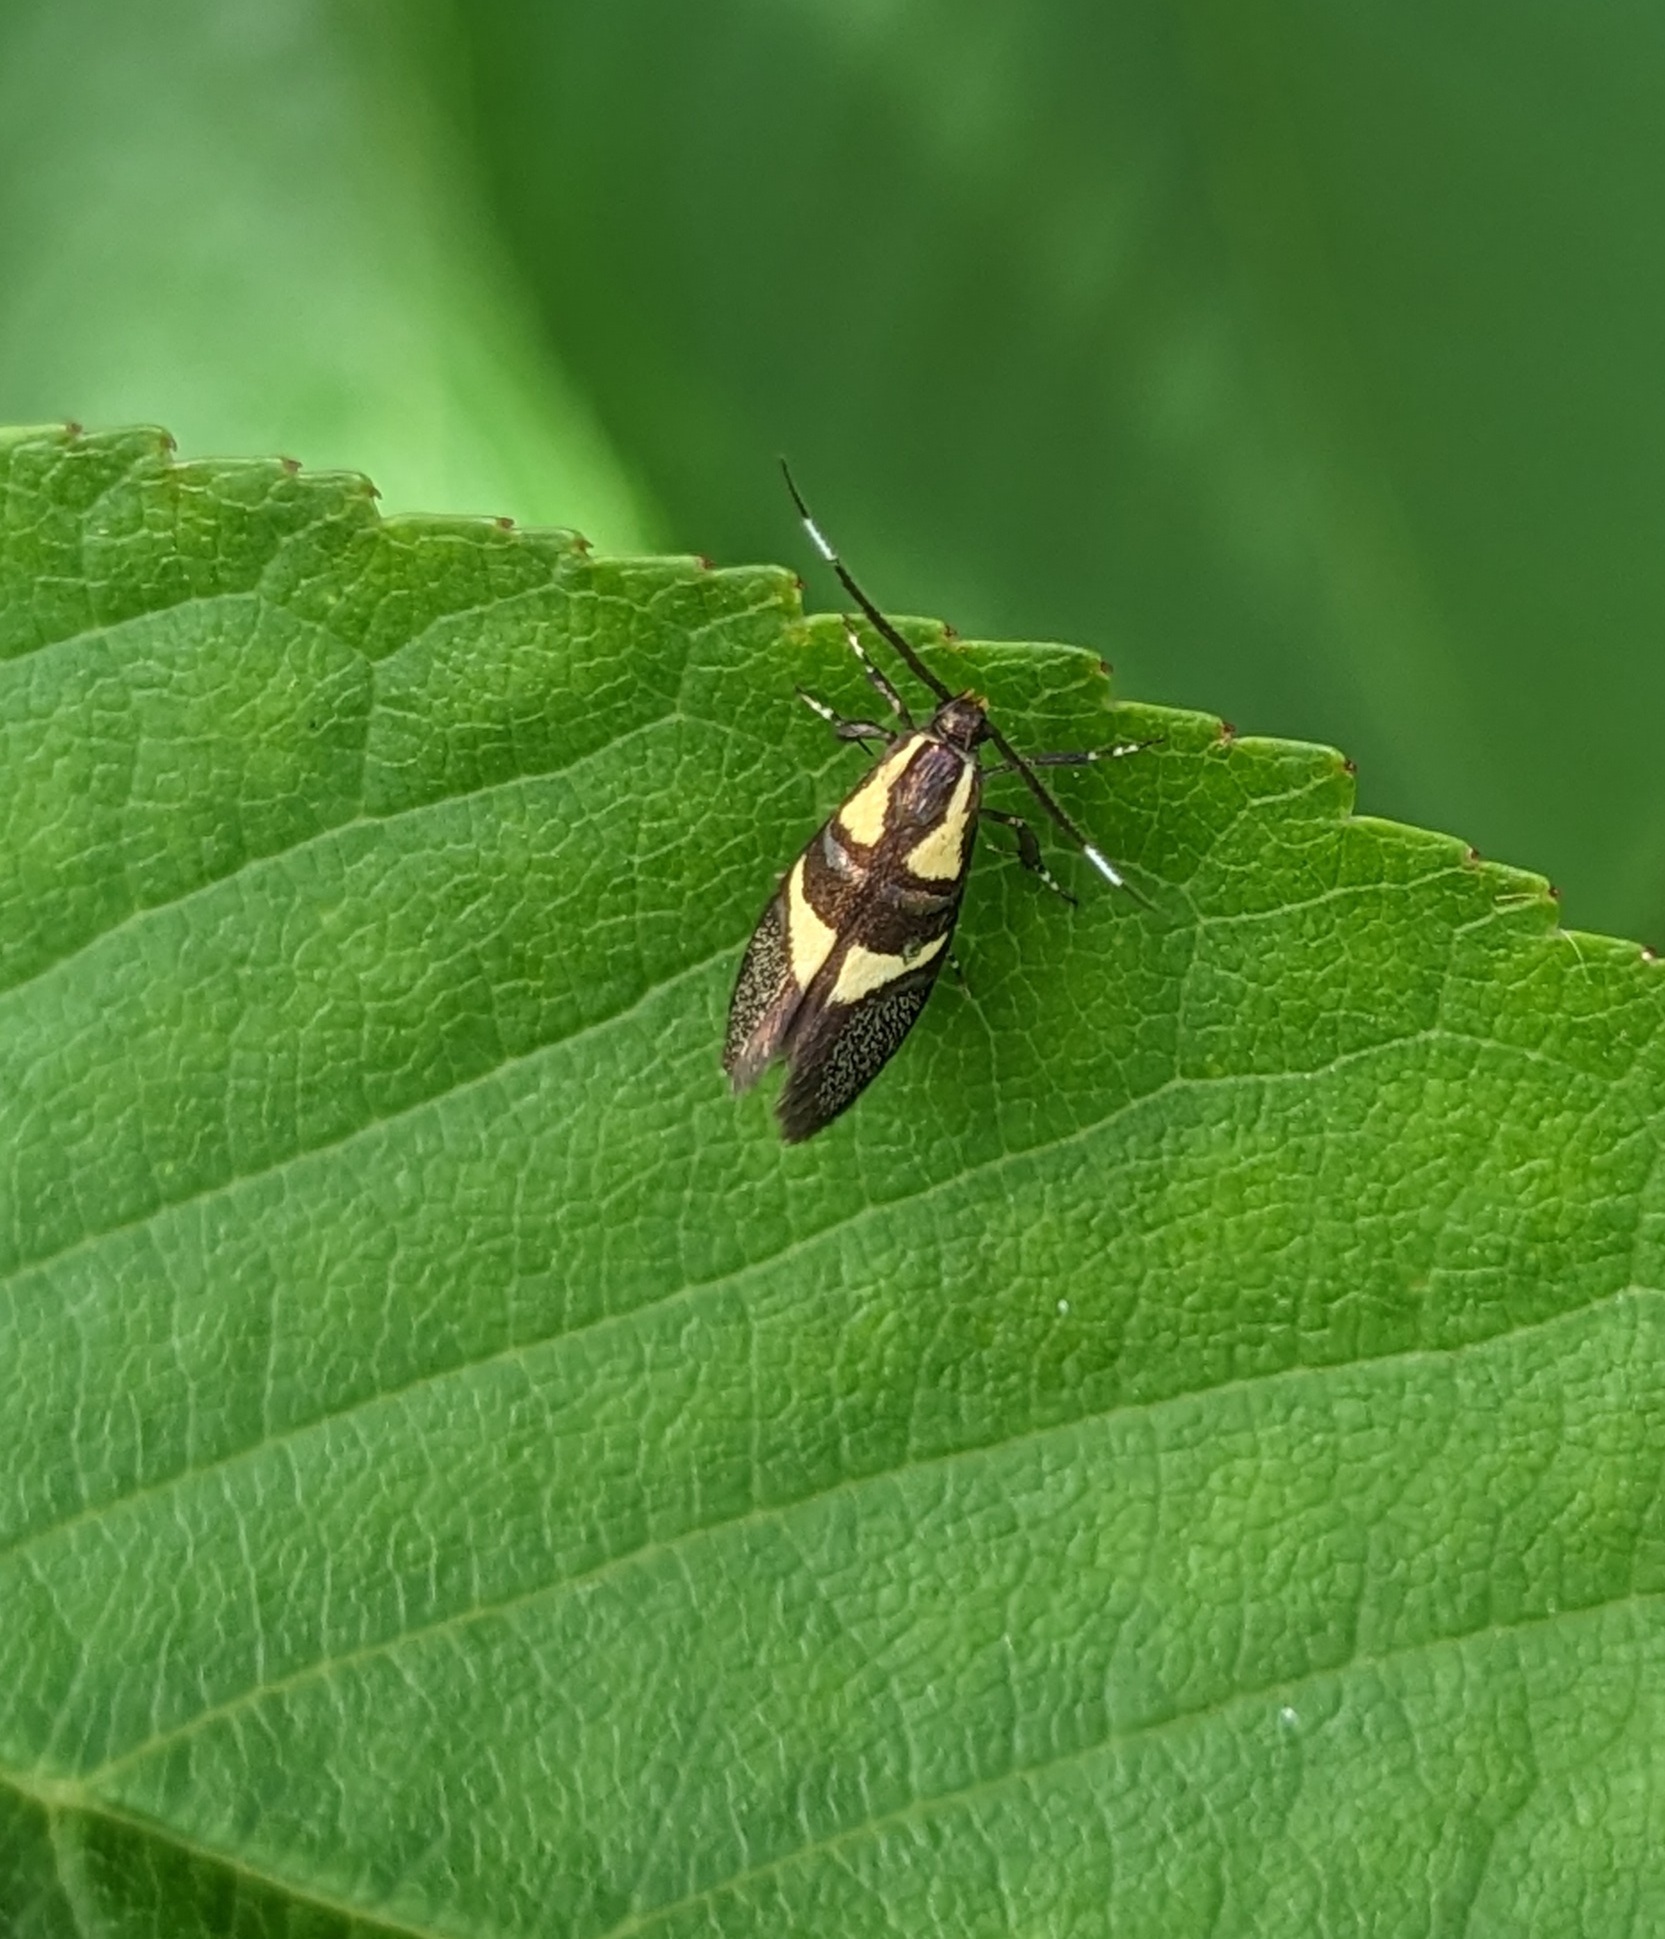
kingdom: Animalia
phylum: Arthropoda
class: Insecta
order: Lepidoptera
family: Oecophoridae
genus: Dafa
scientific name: Dafa oliviella
